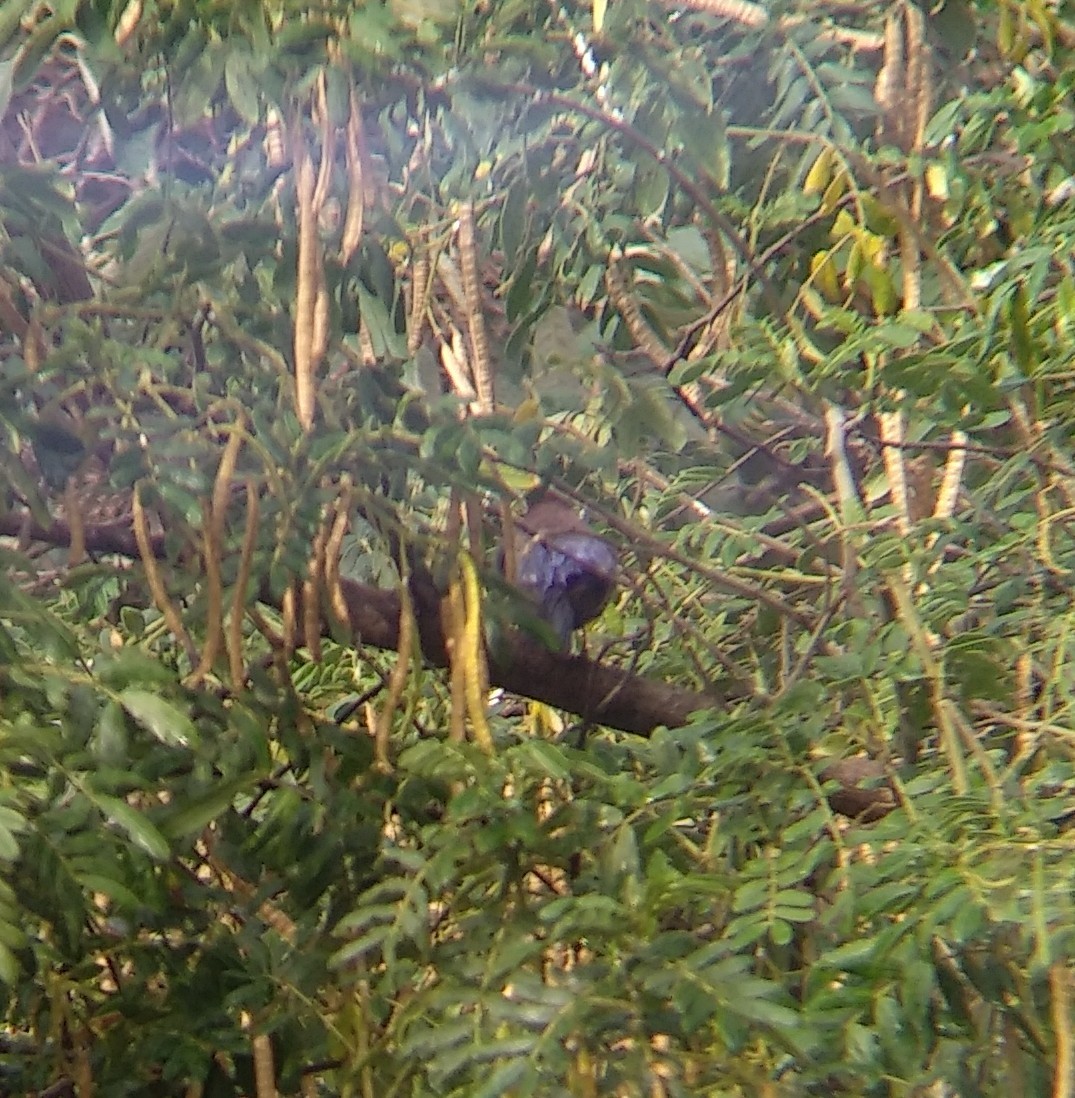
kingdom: Animalia
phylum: Chordata
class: Aves
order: Passeriformes
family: Cardinalidae
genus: Passerina
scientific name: Passerina versicolor
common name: Varied bunting
